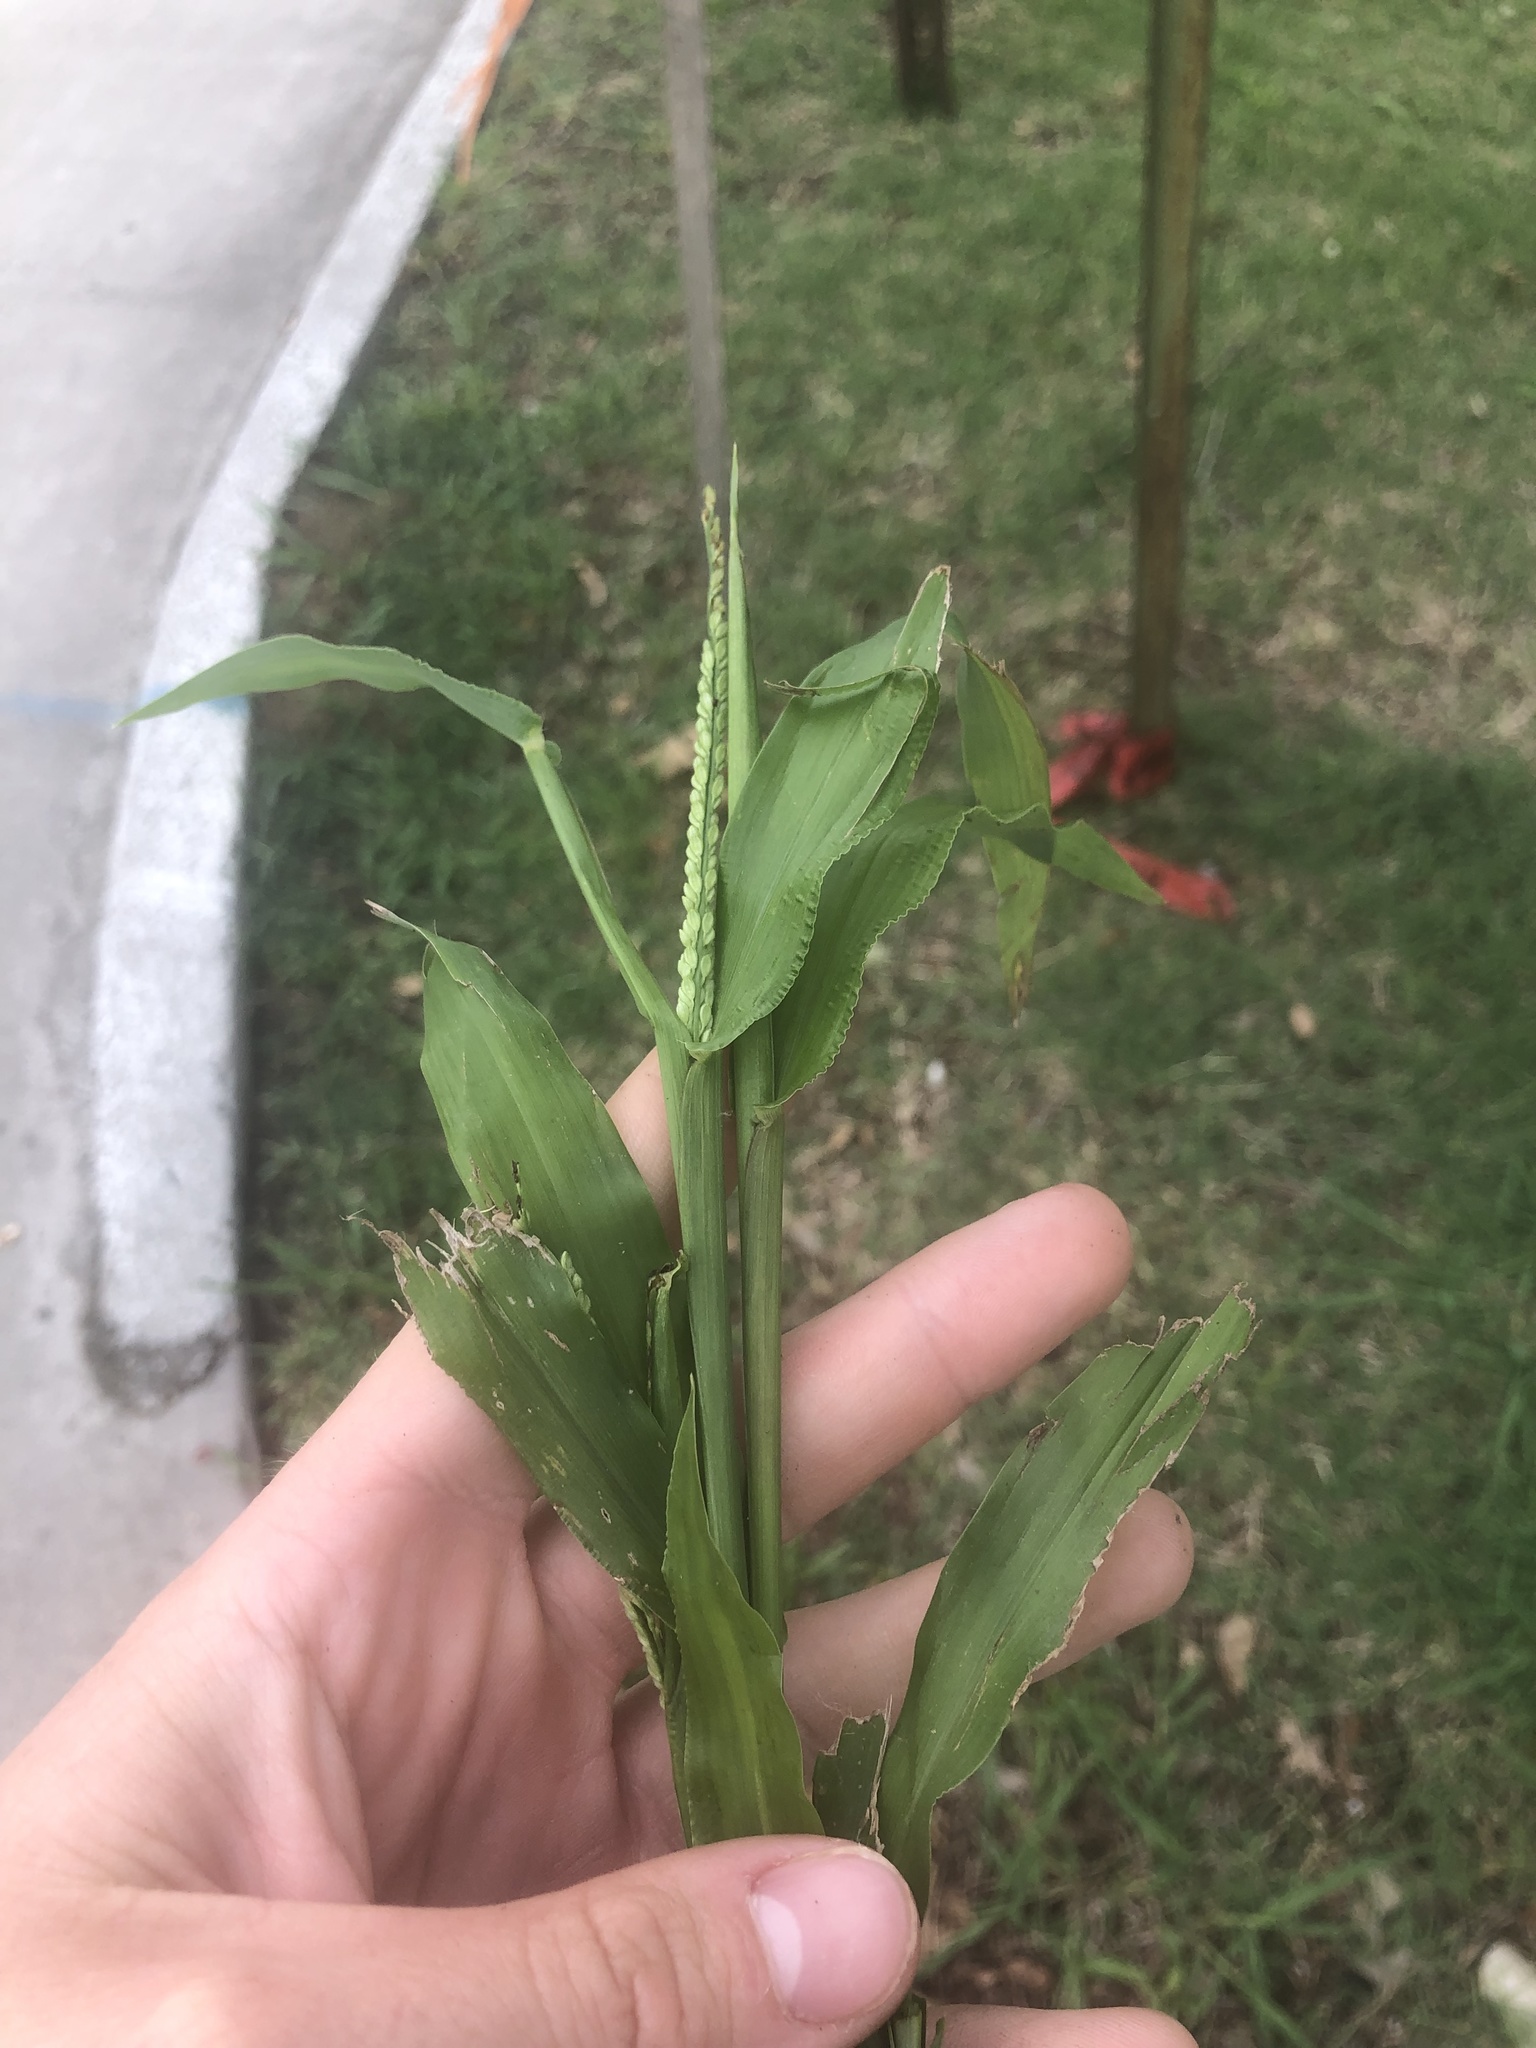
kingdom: Plantae
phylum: Tracheophyta
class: Liliopsida
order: Poales
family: Poaceae
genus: Paspalum
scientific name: Paspalum langei
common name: Rusty-seed paspalum
